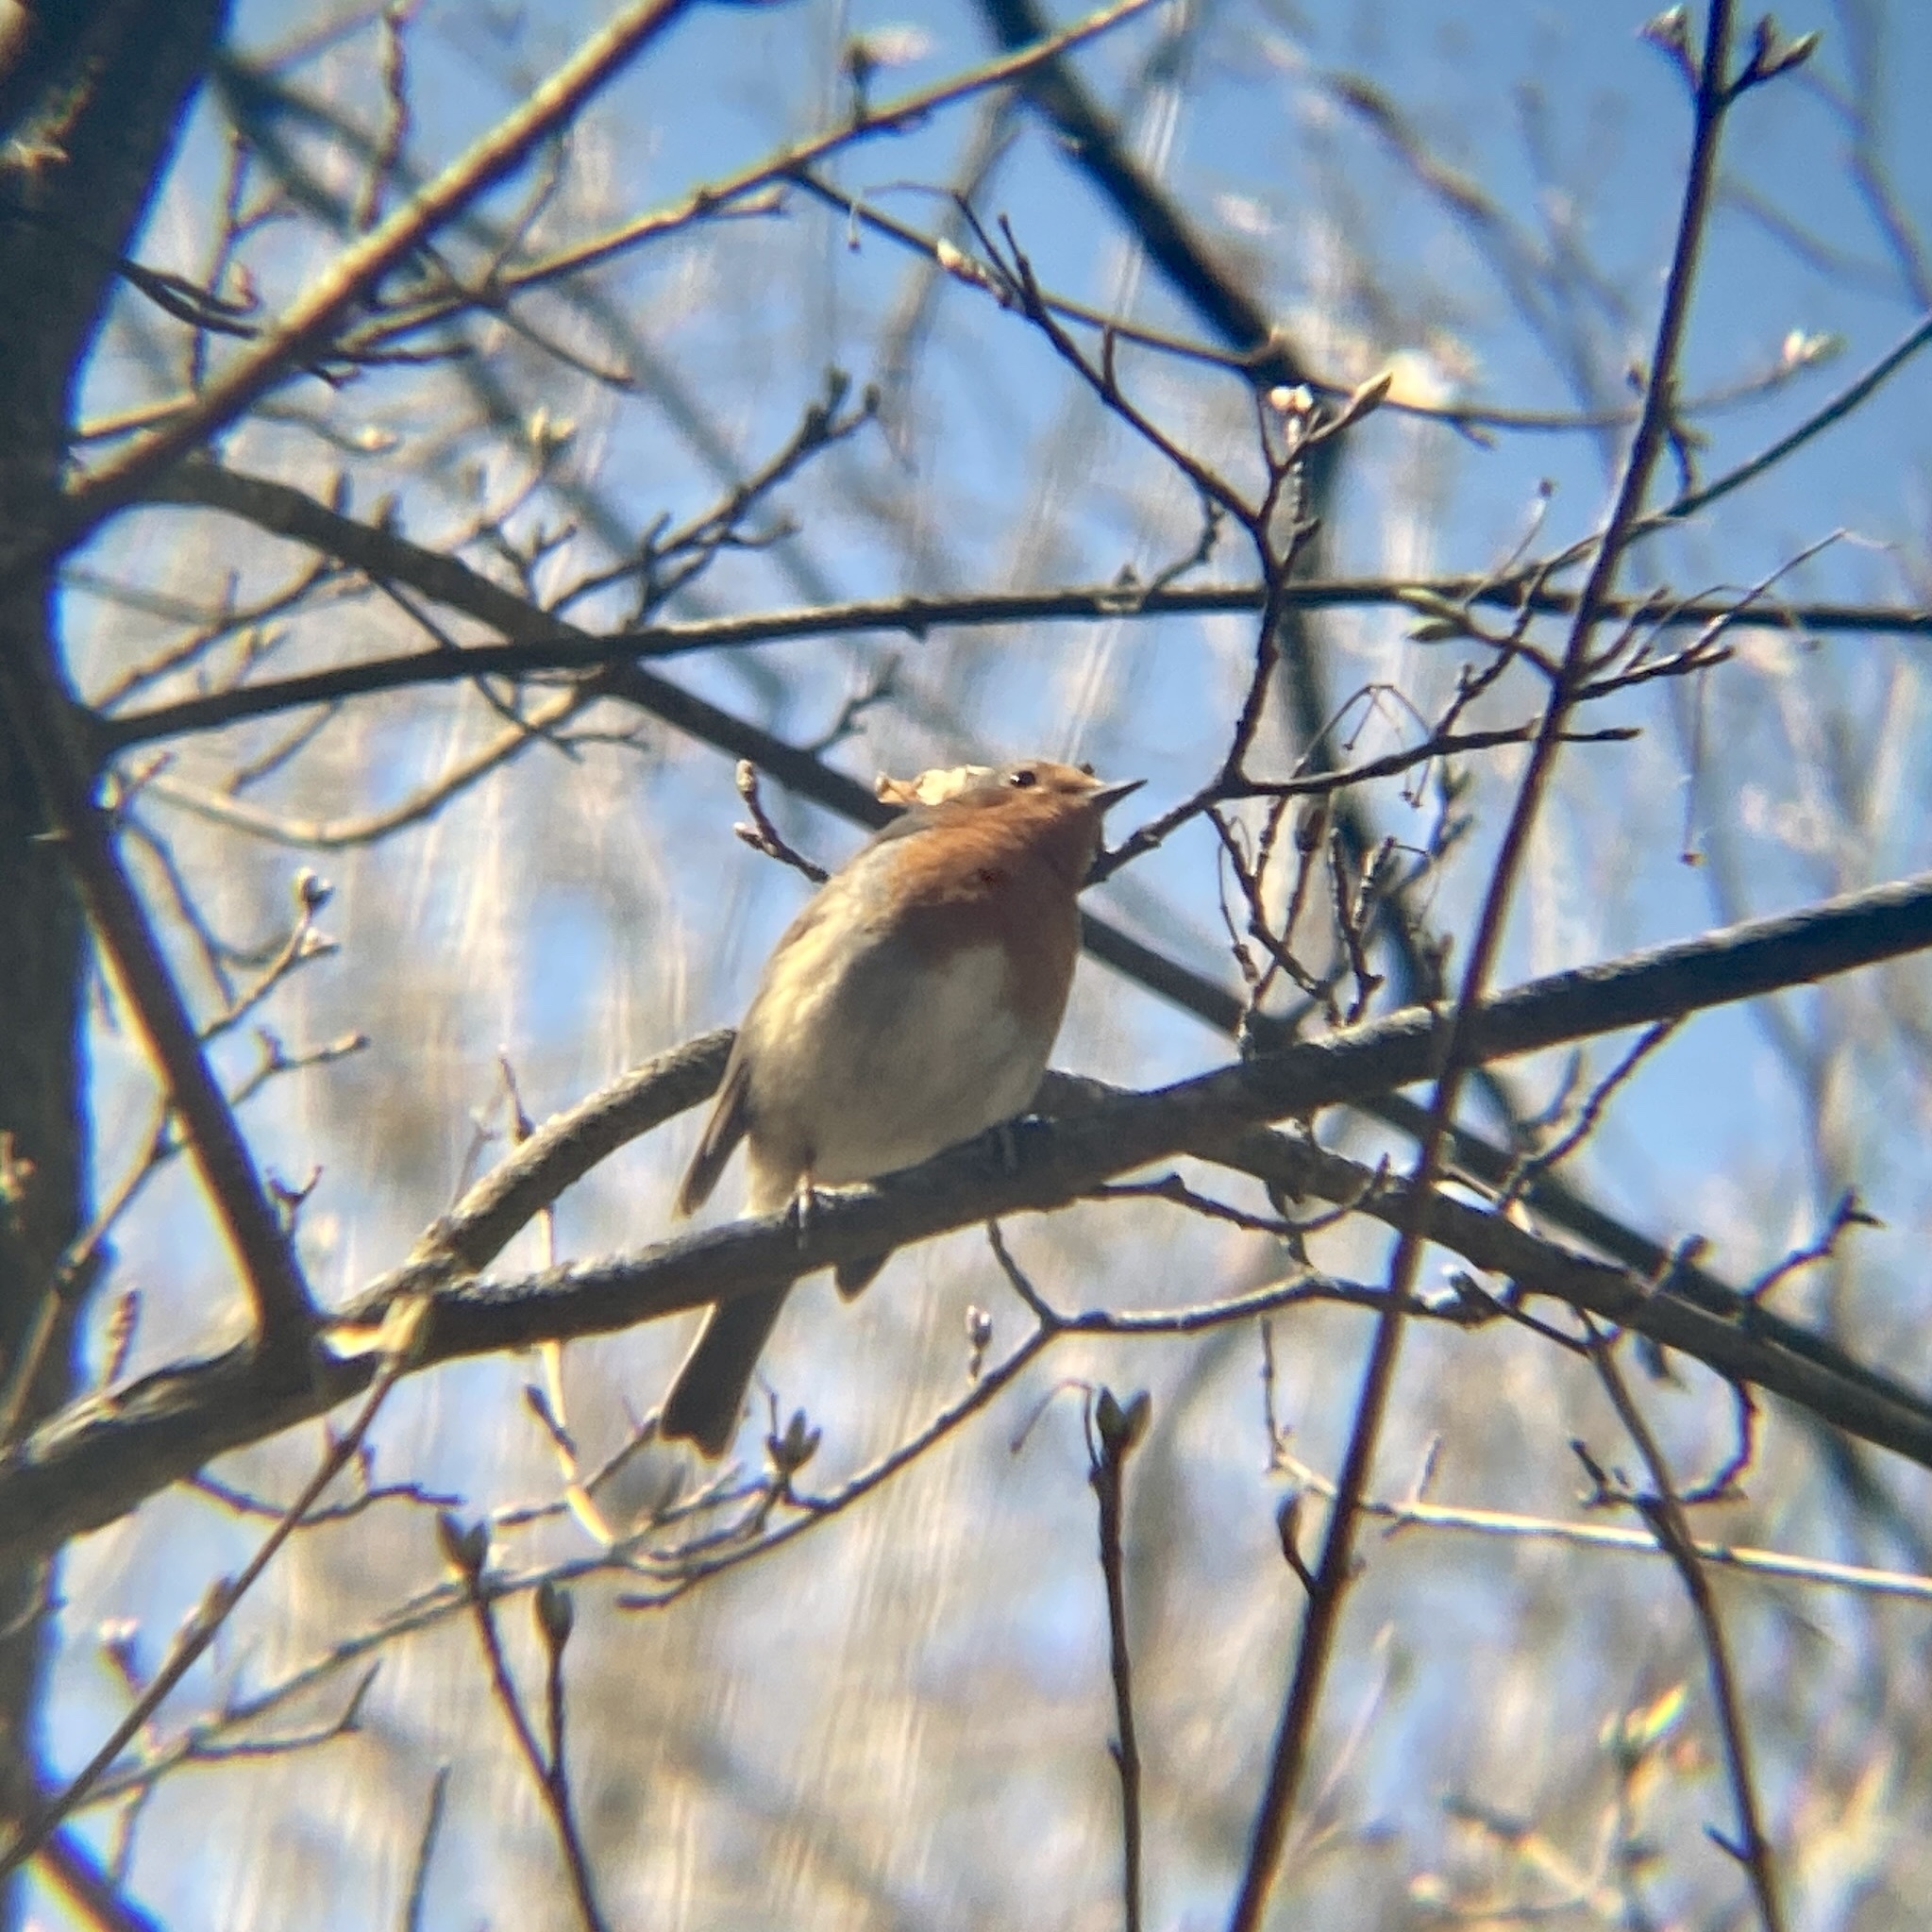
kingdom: Animalia
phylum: Chordata
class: Aves
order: Passeriformes
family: Muscicapidae
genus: Erithacus
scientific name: Erithacus rubecula
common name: European robin
